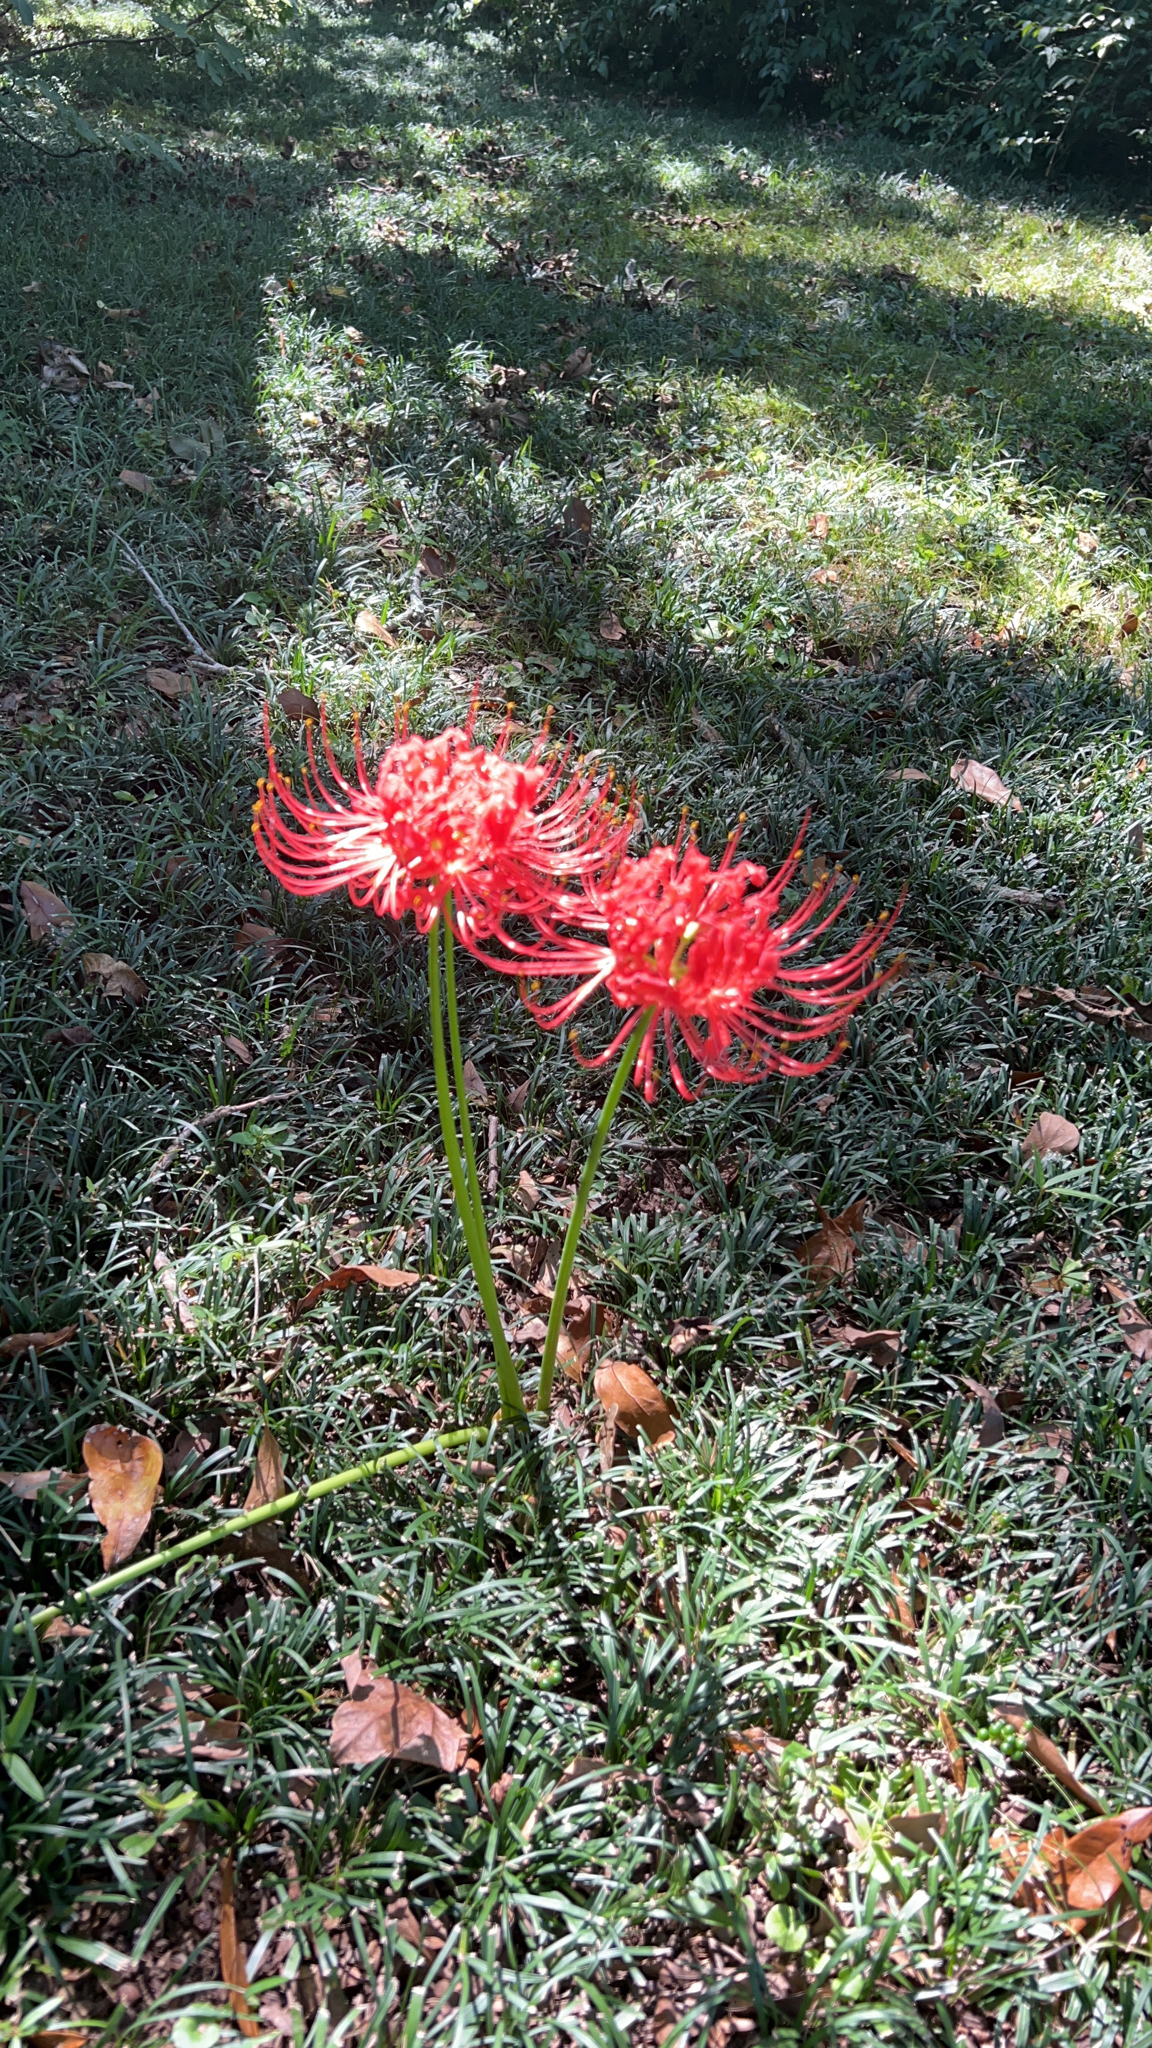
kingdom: Plantae
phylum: Tracheophyta
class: Liliopsida
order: Asparagales
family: Amaryllidaceae
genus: Lycoris
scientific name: Lycoris radiata
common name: Red spider lily
